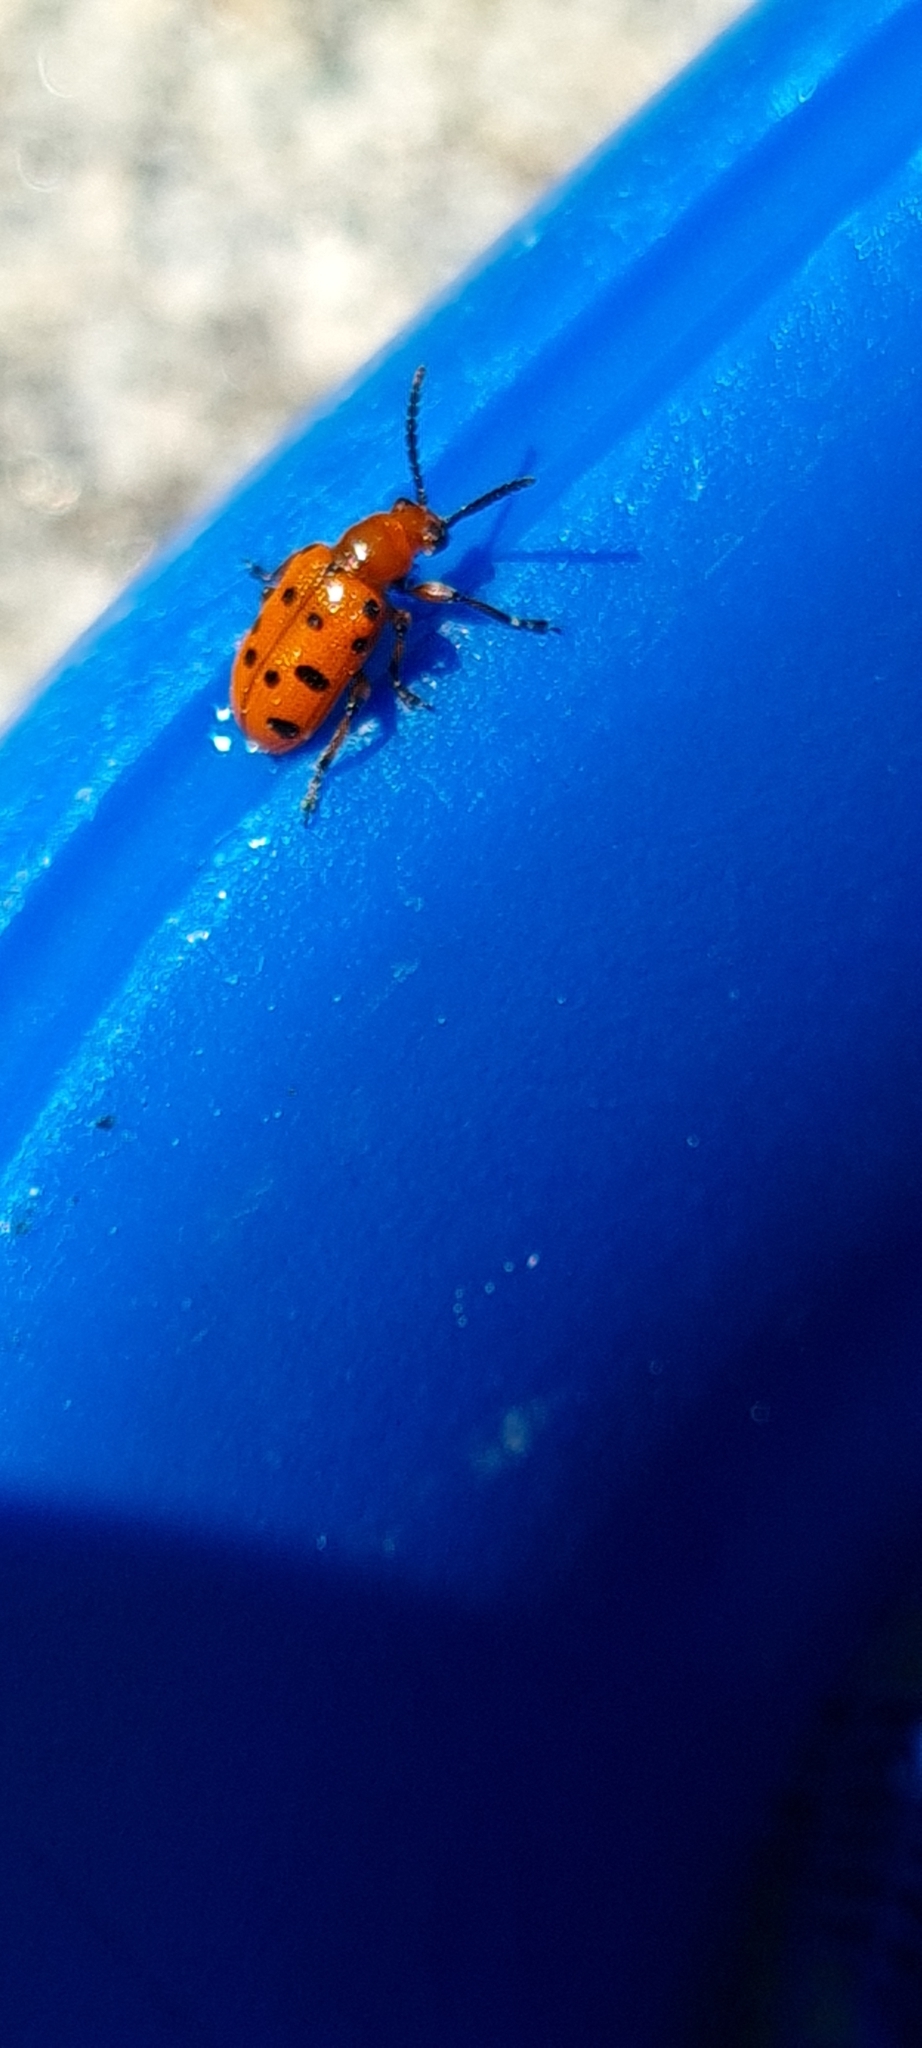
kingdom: Animalia
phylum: Arthropoda
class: Insecta
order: Coleoptera
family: Chrysomelidae
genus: Crioceris
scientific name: Crioceris duodecimpunctata
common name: Twelve-spotted asparagus beetle
